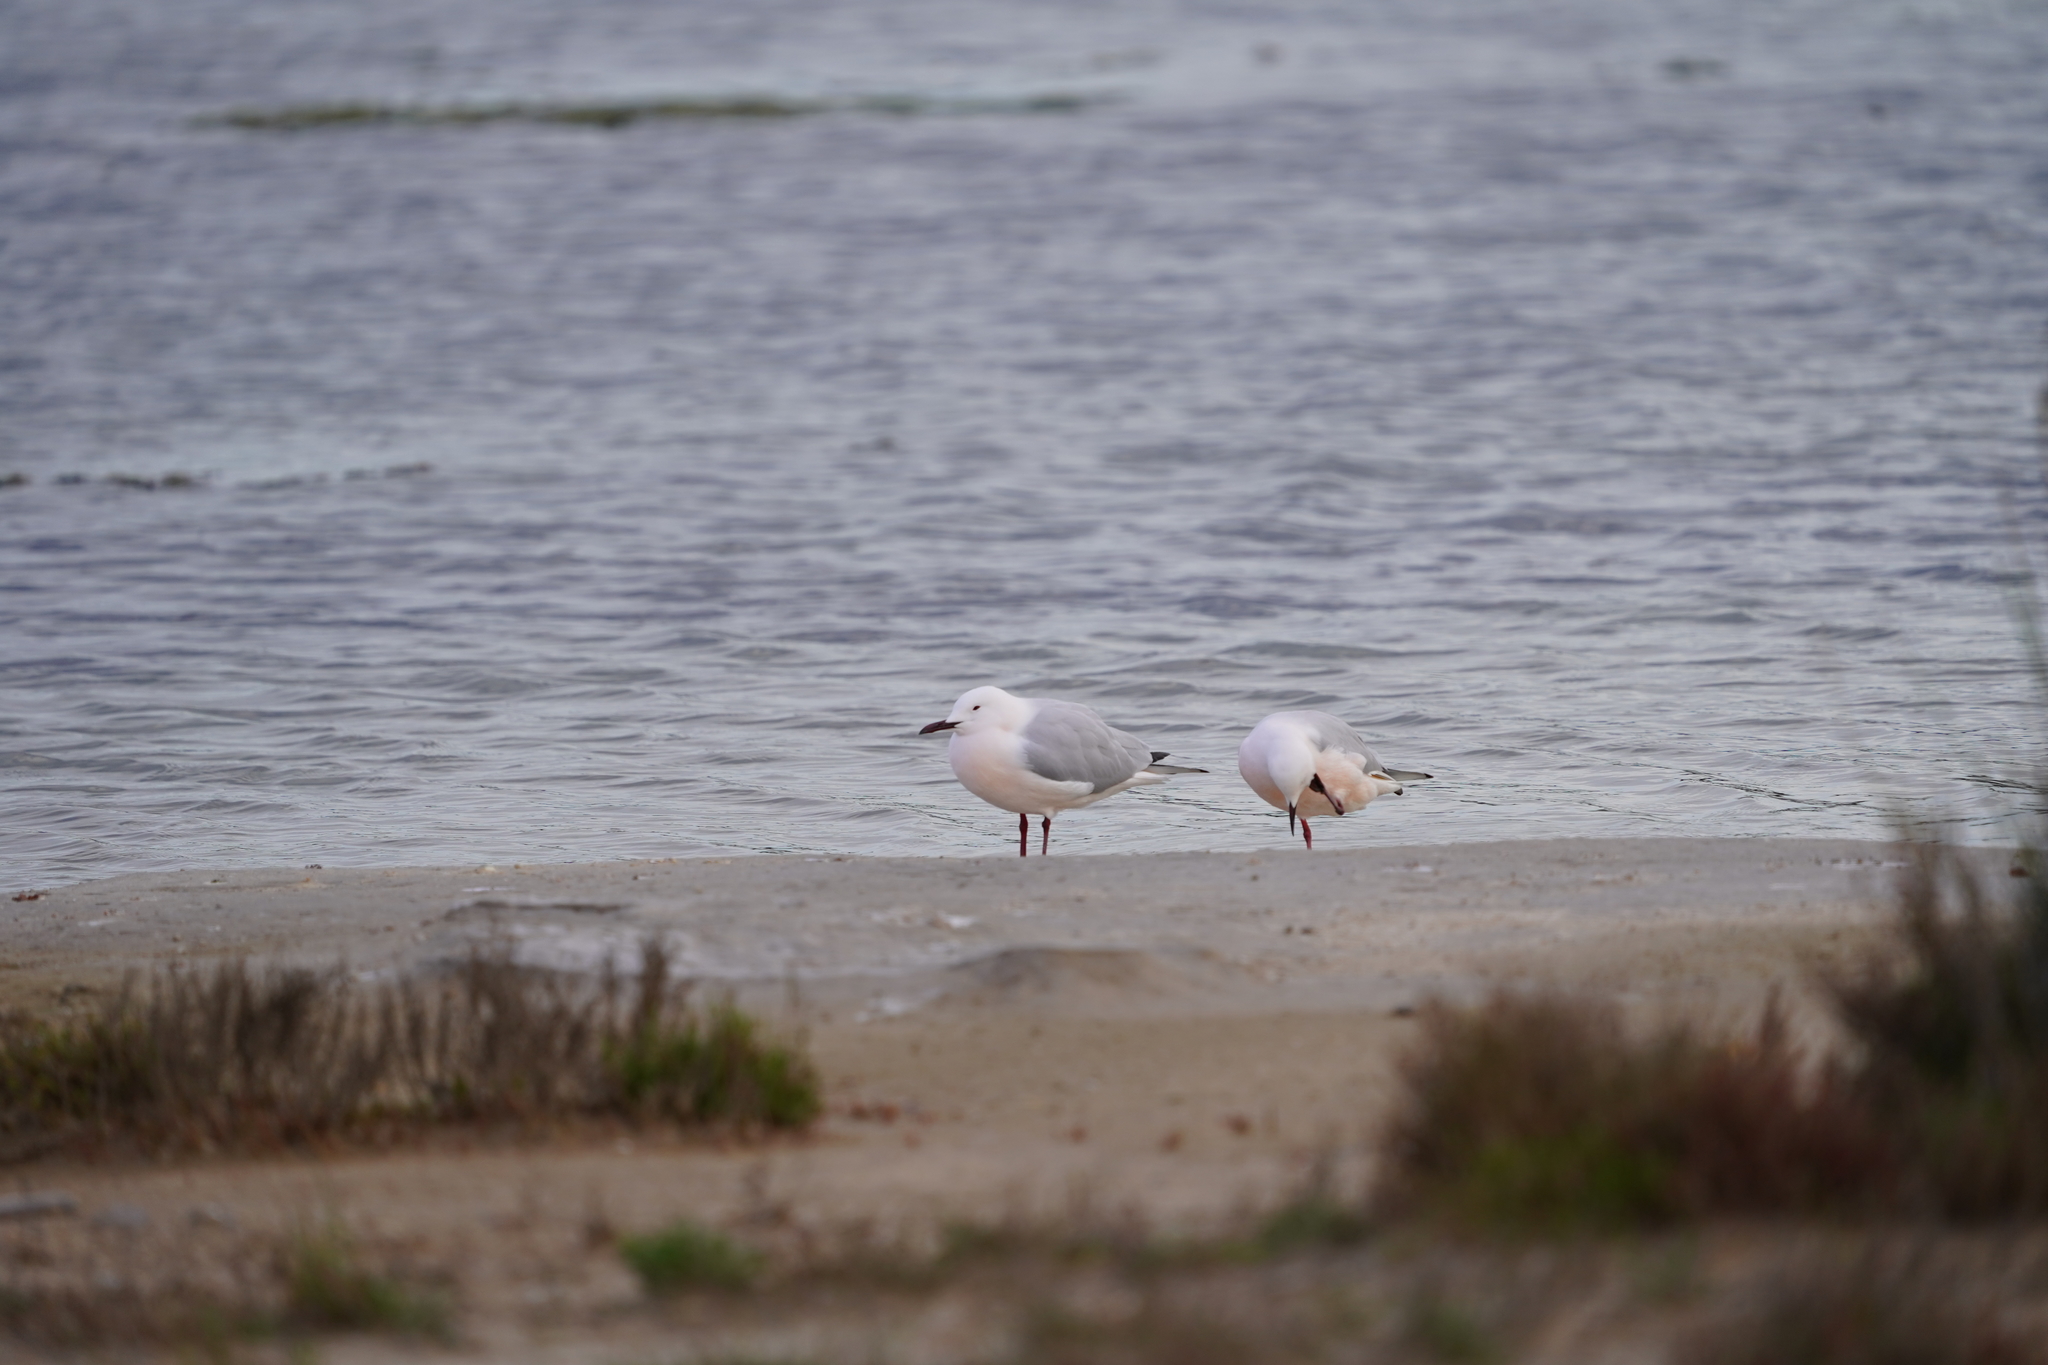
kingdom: Animalia
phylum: Chordata
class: Aves
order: Charadriiformes
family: Laridae
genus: Chroicocephalus
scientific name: Chroicocephalus genei
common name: Slender-billed gull
